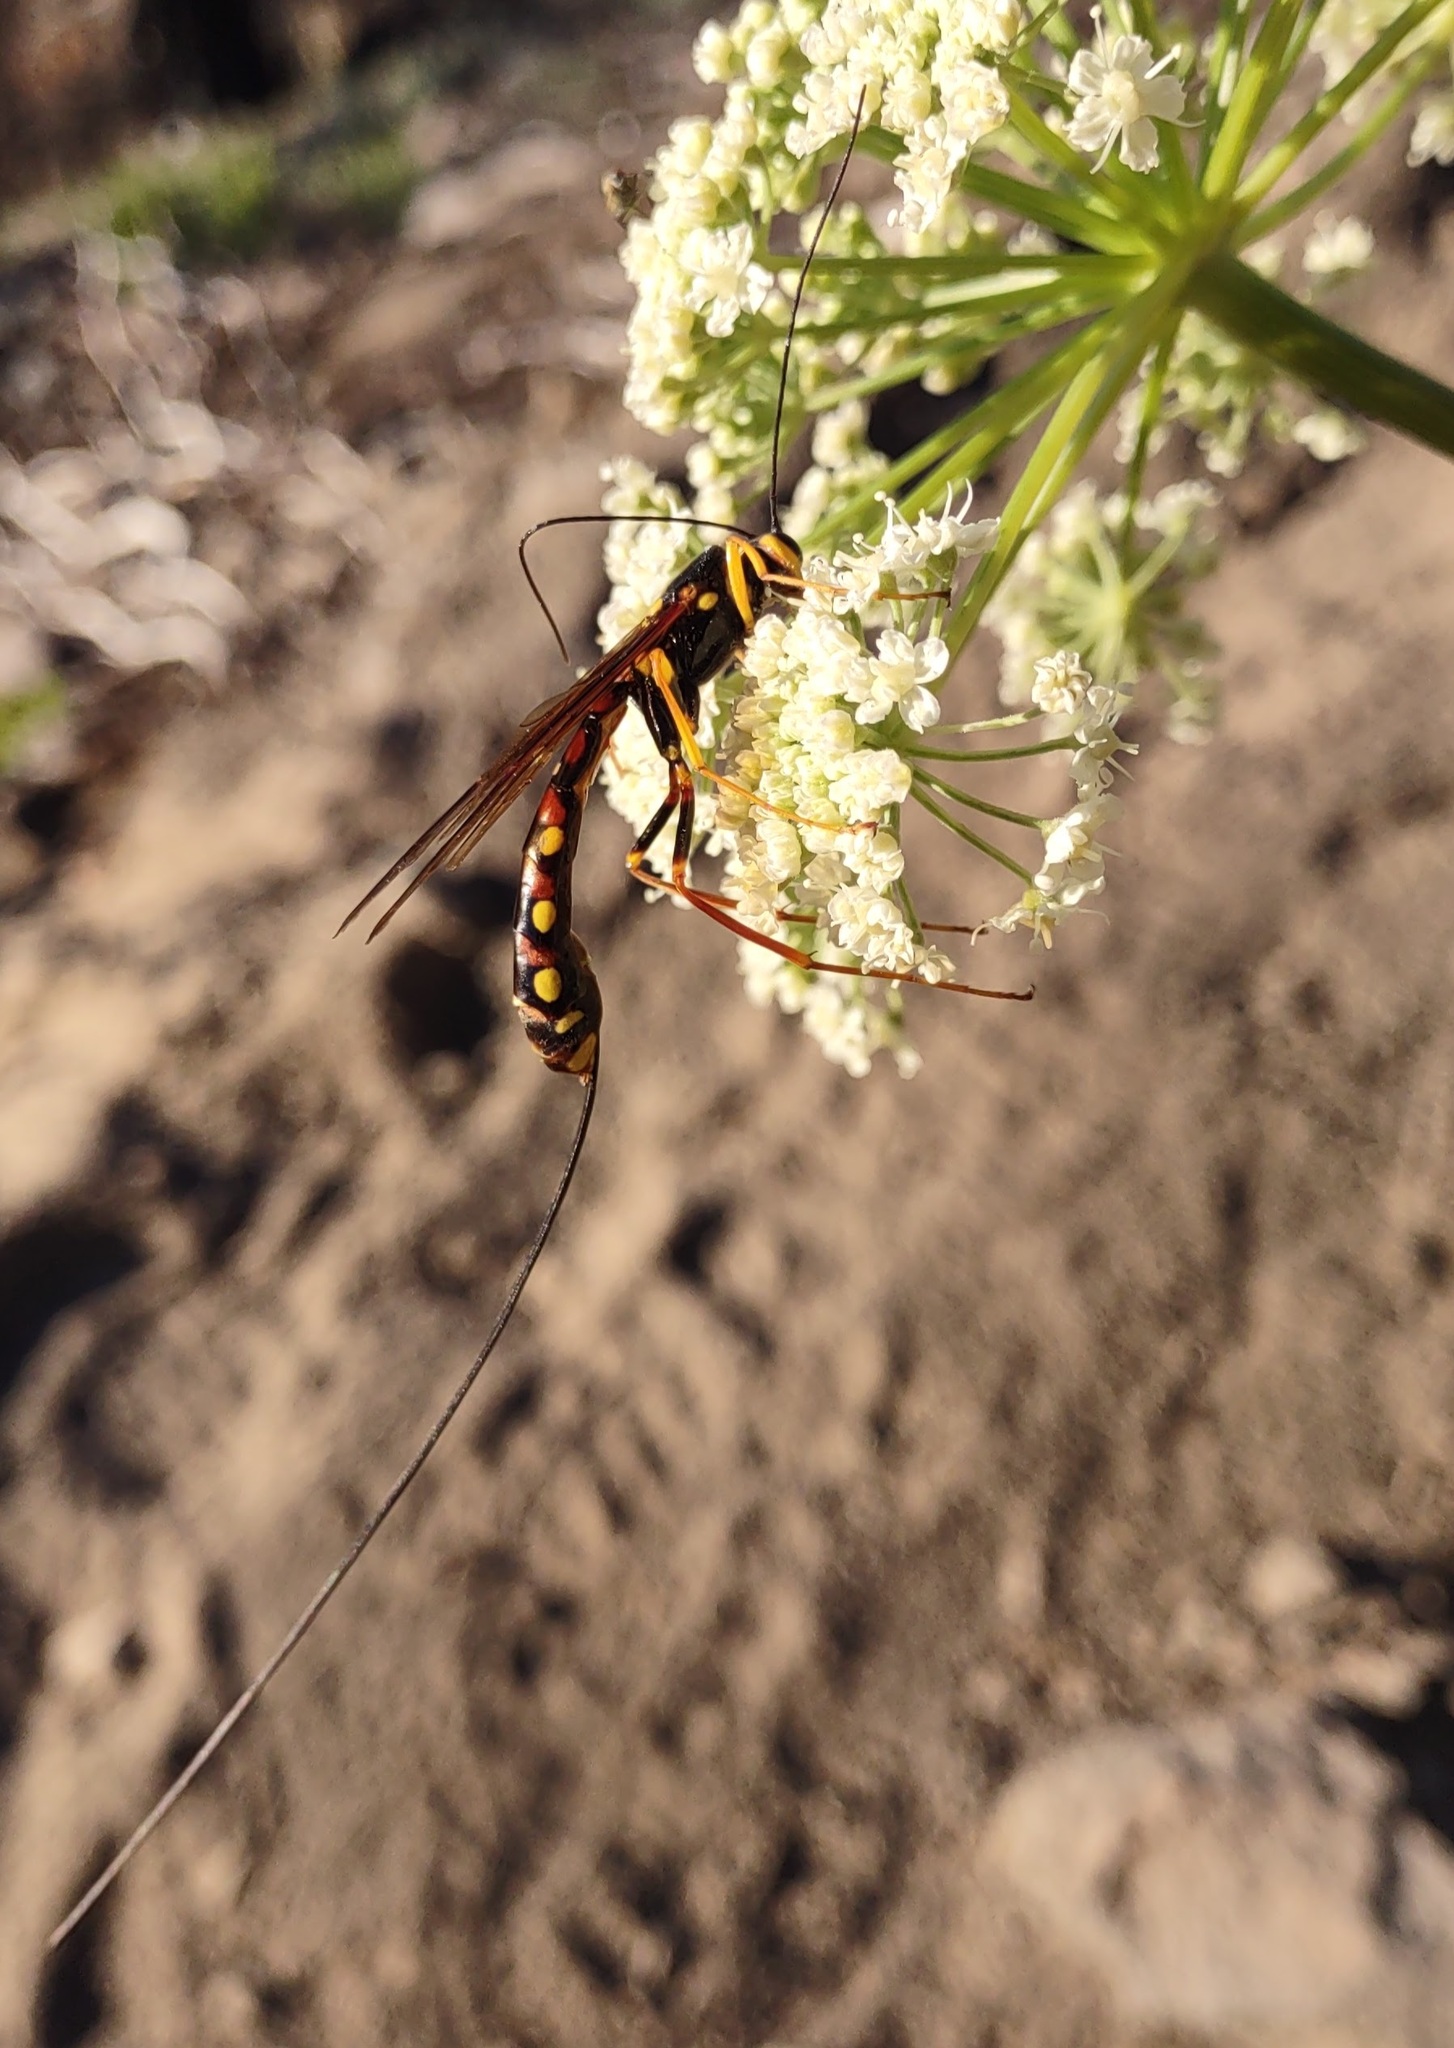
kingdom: Animalia
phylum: Arthropoda
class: Insecta
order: Hymenoptera
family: Ichneumonidae
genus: Megarhyssa
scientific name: Megarhyssa nortoni
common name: Norton's giant ichneumonid wasp
